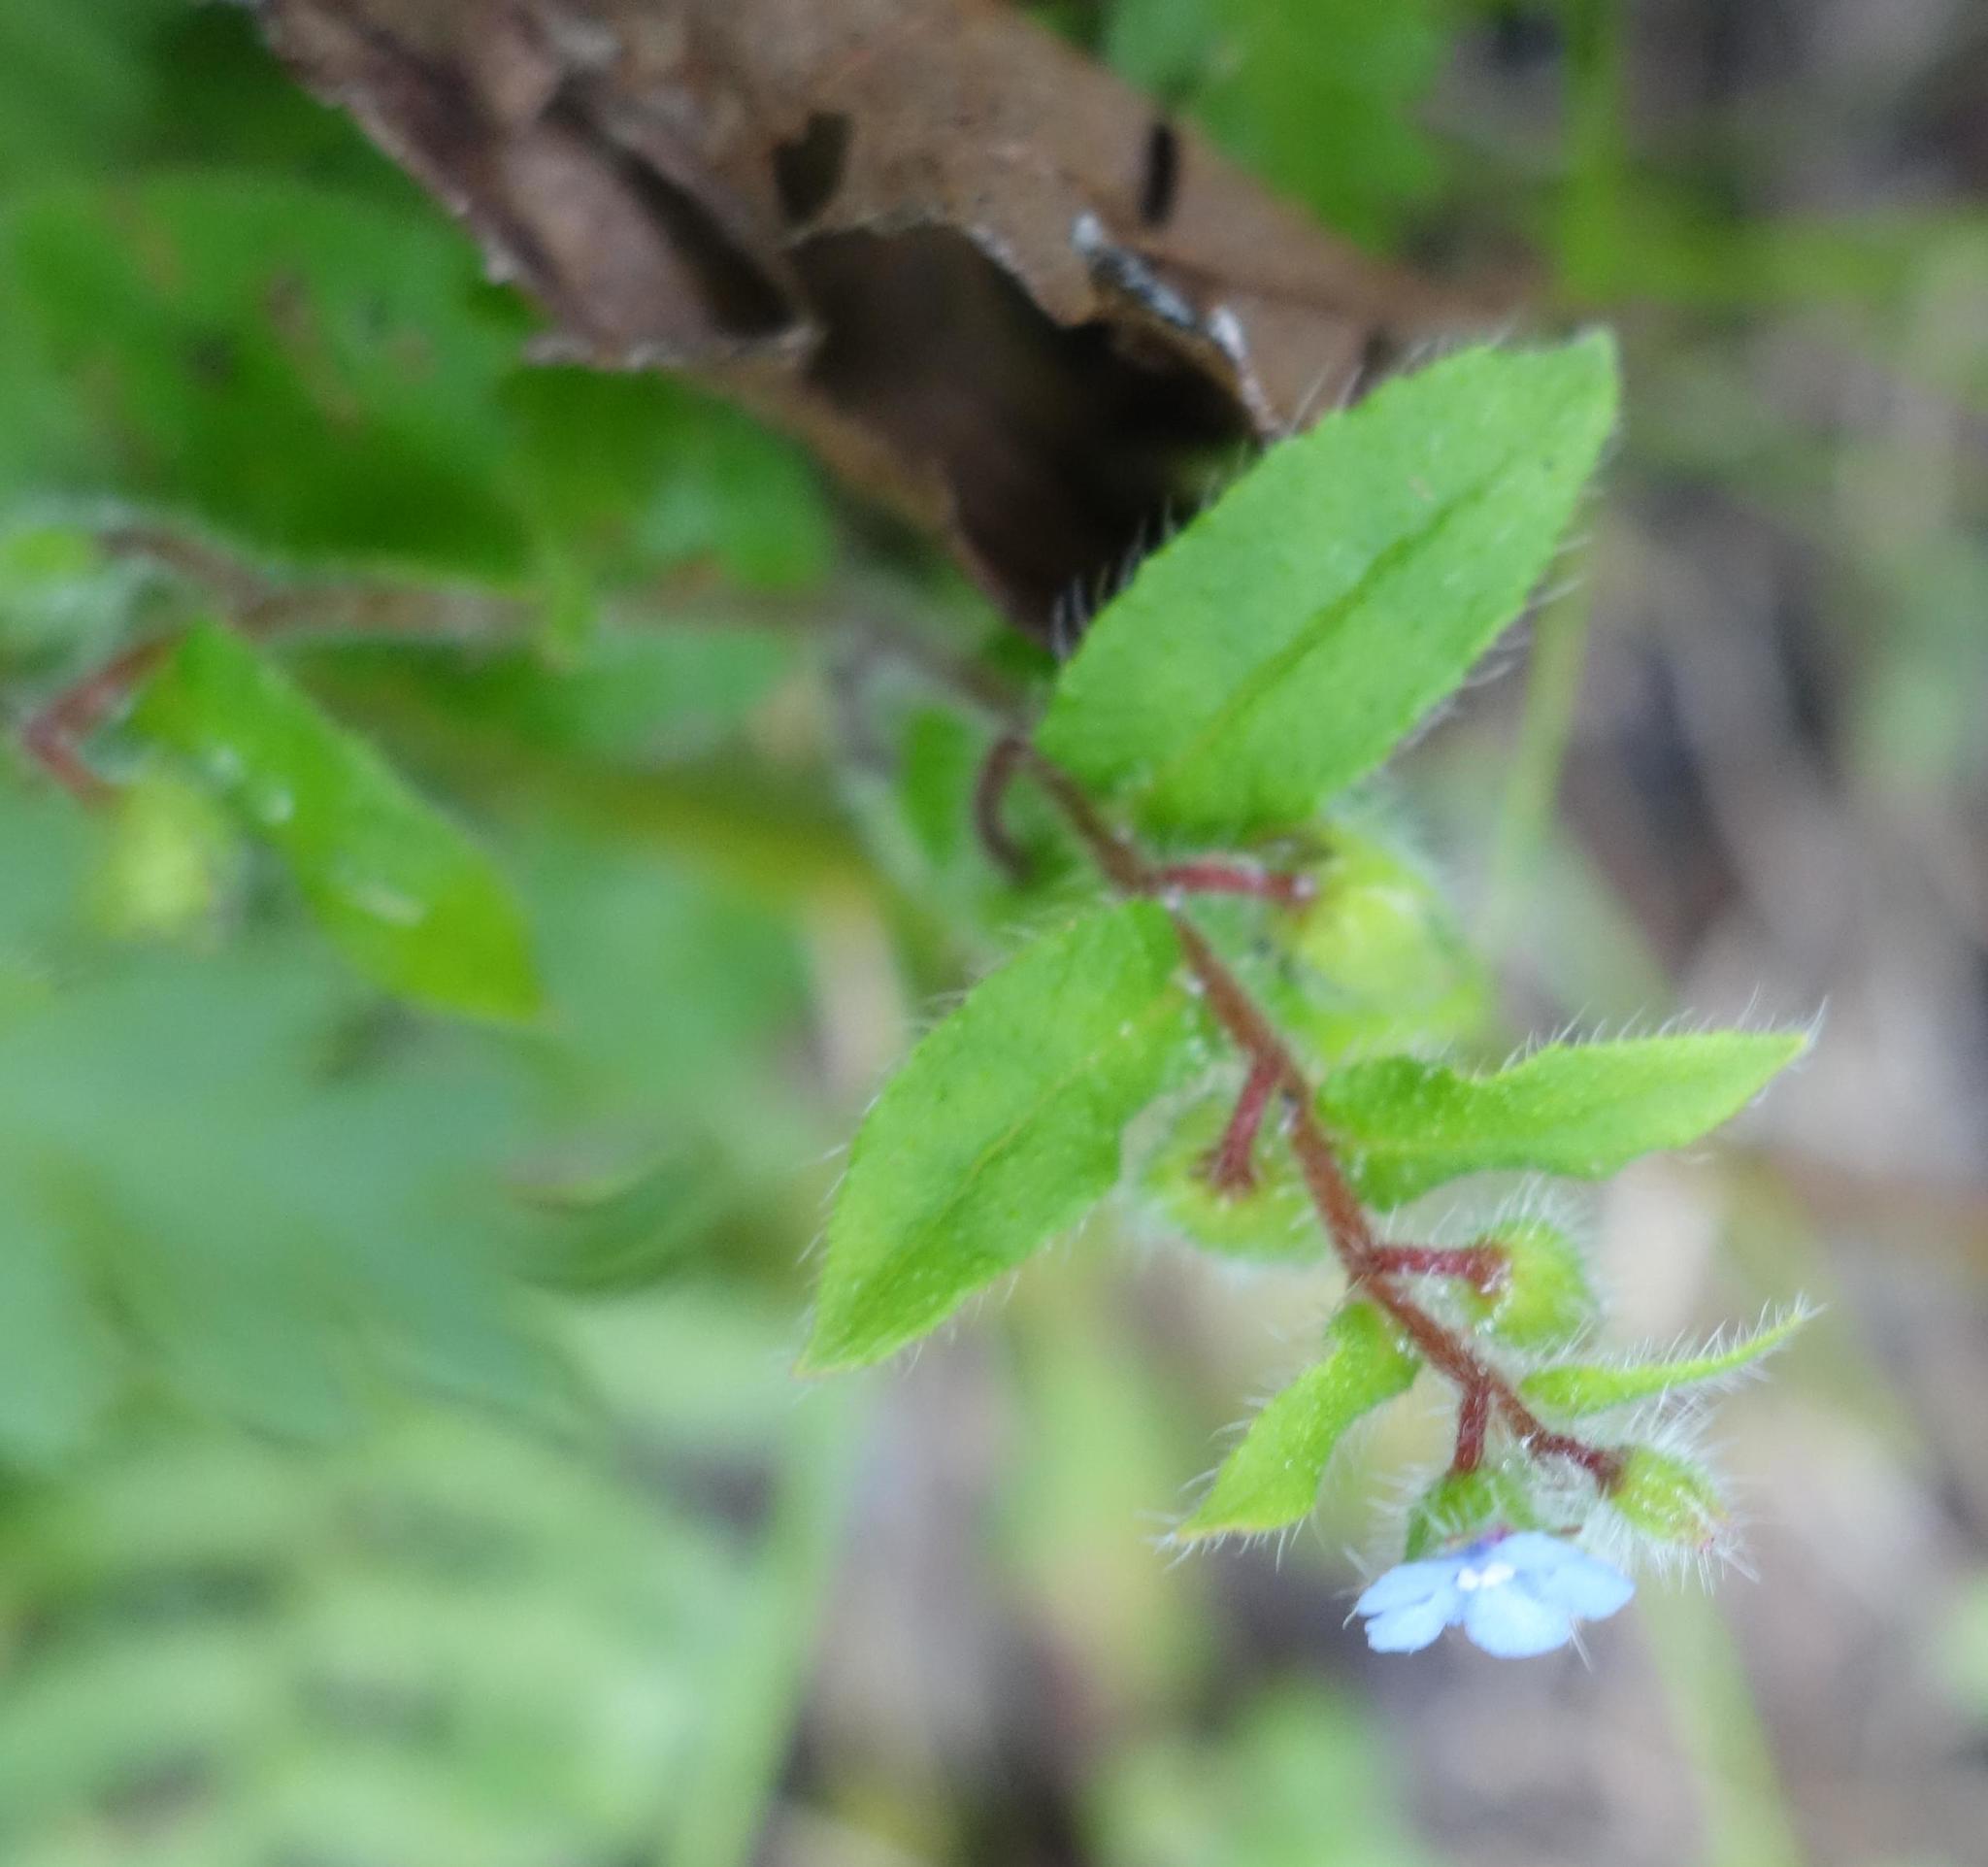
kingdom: Plantae
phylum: Tracheophyta
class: Magnoliopsida
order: Boraginales
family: Boraginaceae
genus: Thyrocarpus
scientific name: Thyrocarpus sampsonii
